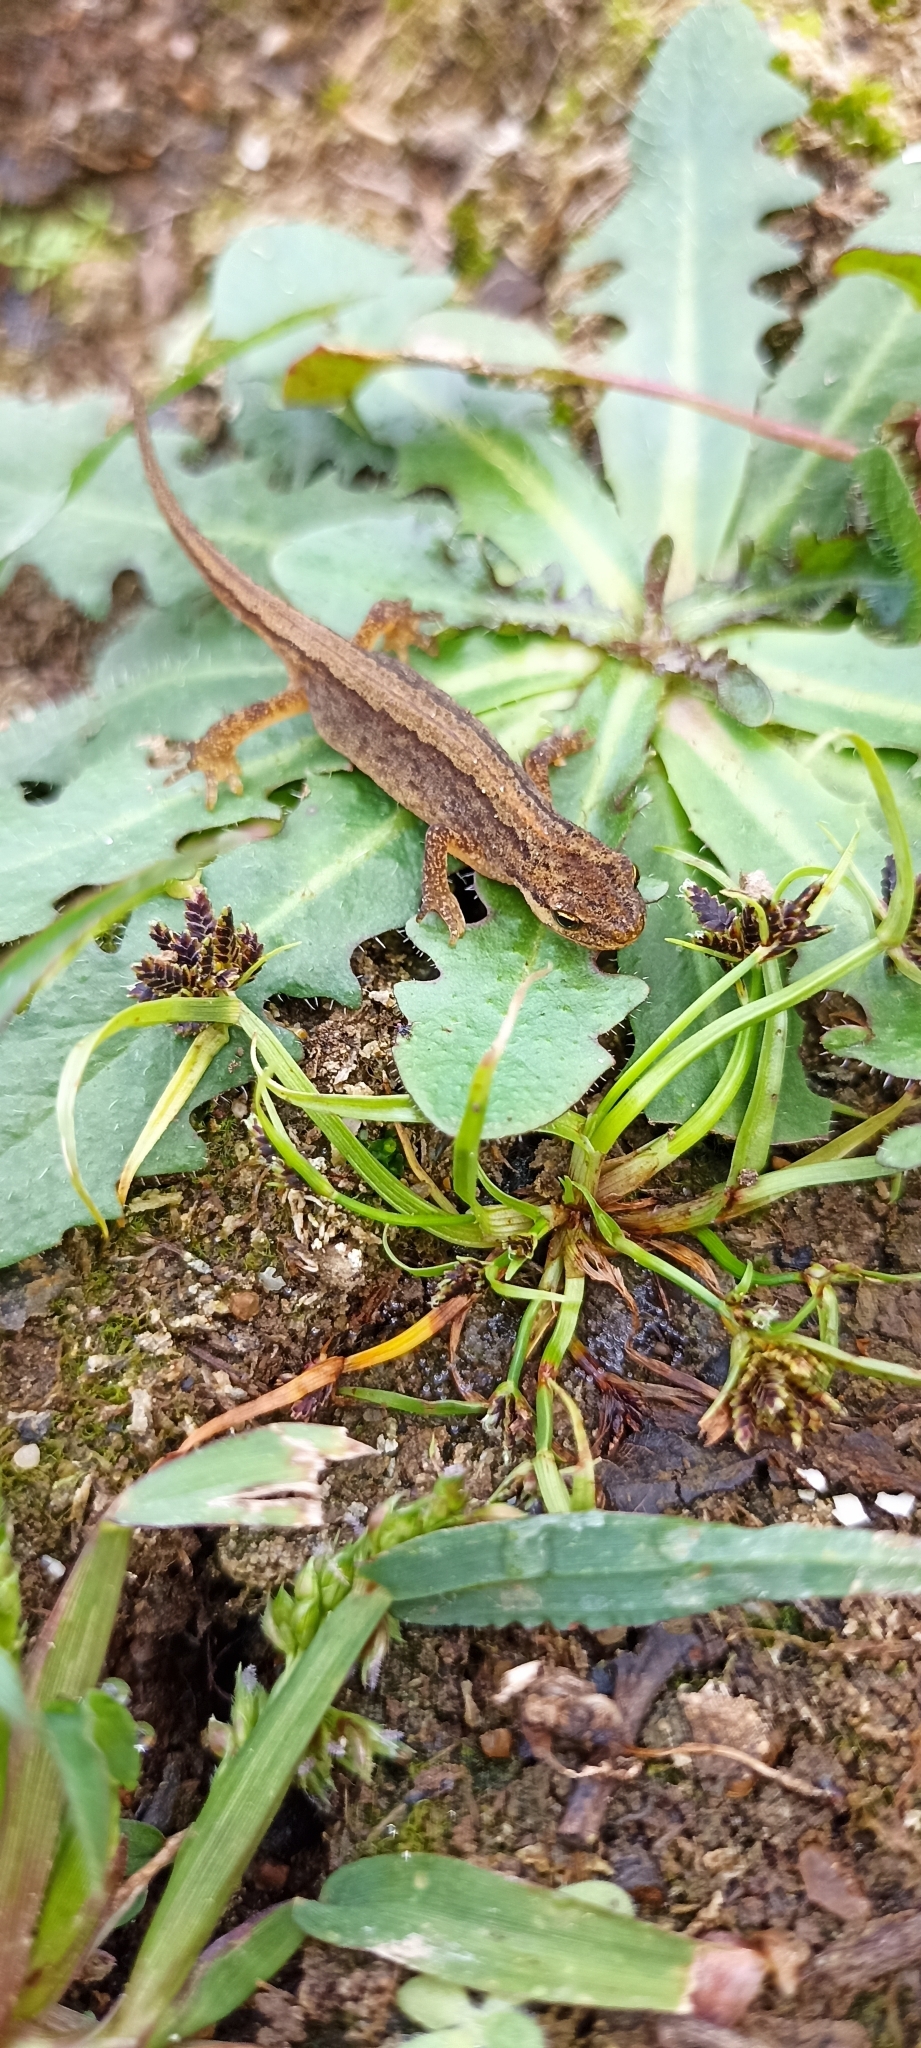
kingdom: Animalia
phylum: Chordata
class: Amphibia
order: Caudata
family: Salamandridae
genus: Lissotriton
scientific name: Lissotriton helveticus
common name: Palmate newt
